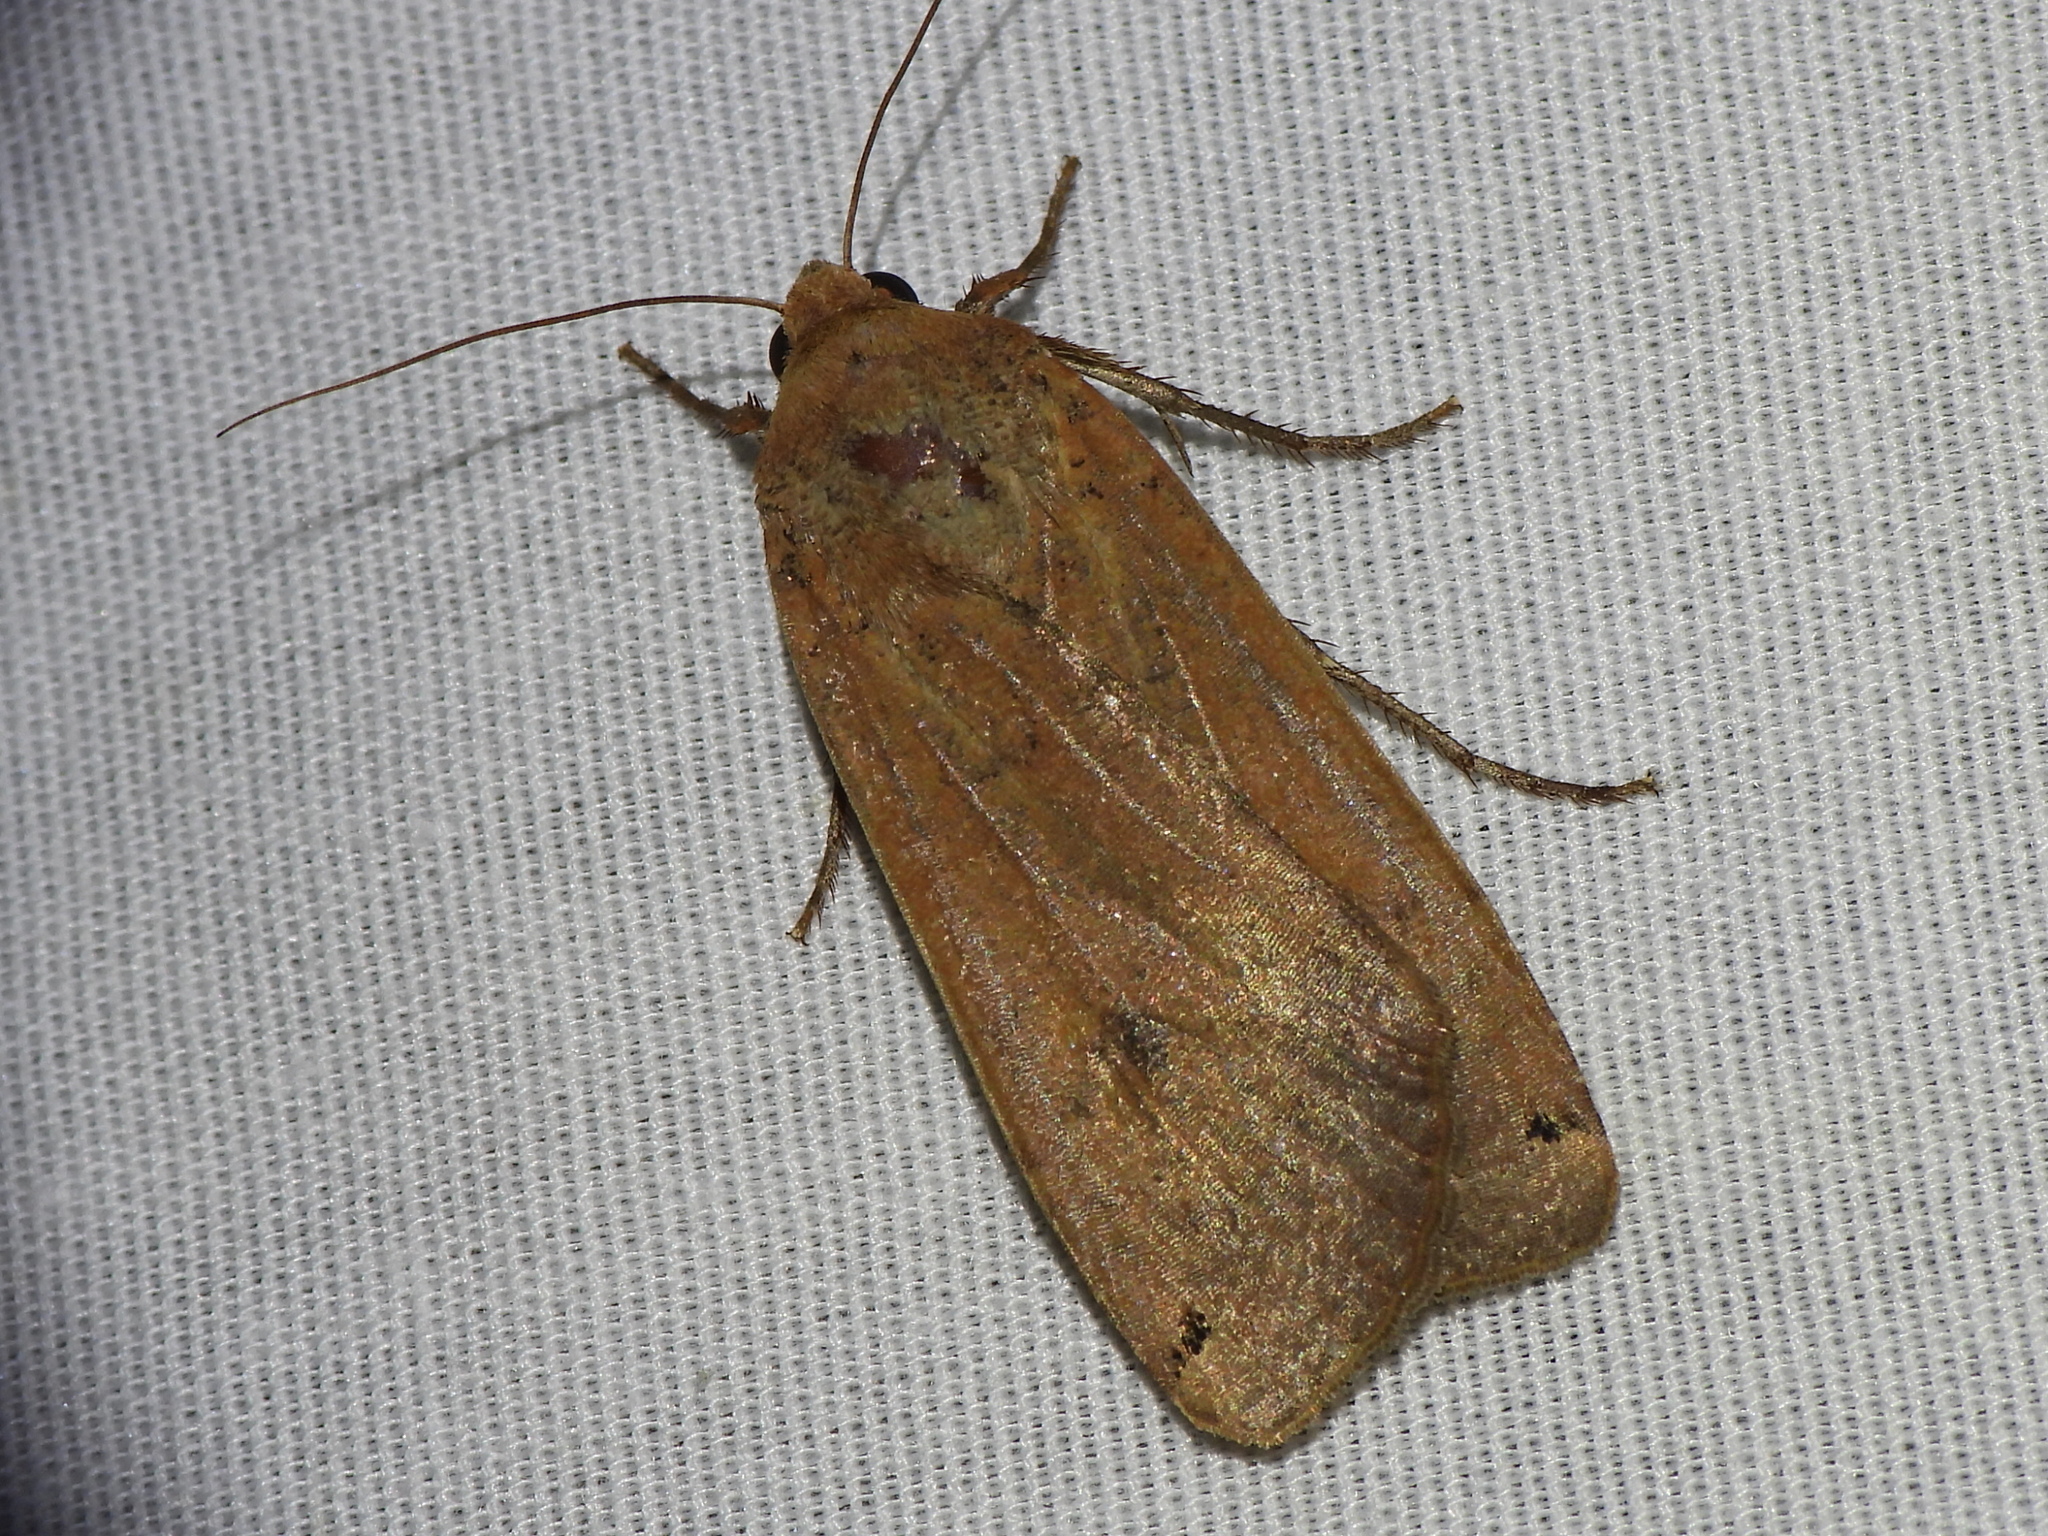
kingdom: Animalia
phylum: Arthropoda
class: Insecta
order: Lepidoptera
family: Noctuidae
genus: Noctua
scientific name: Noctua pronuba
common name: Large yellow underwing
